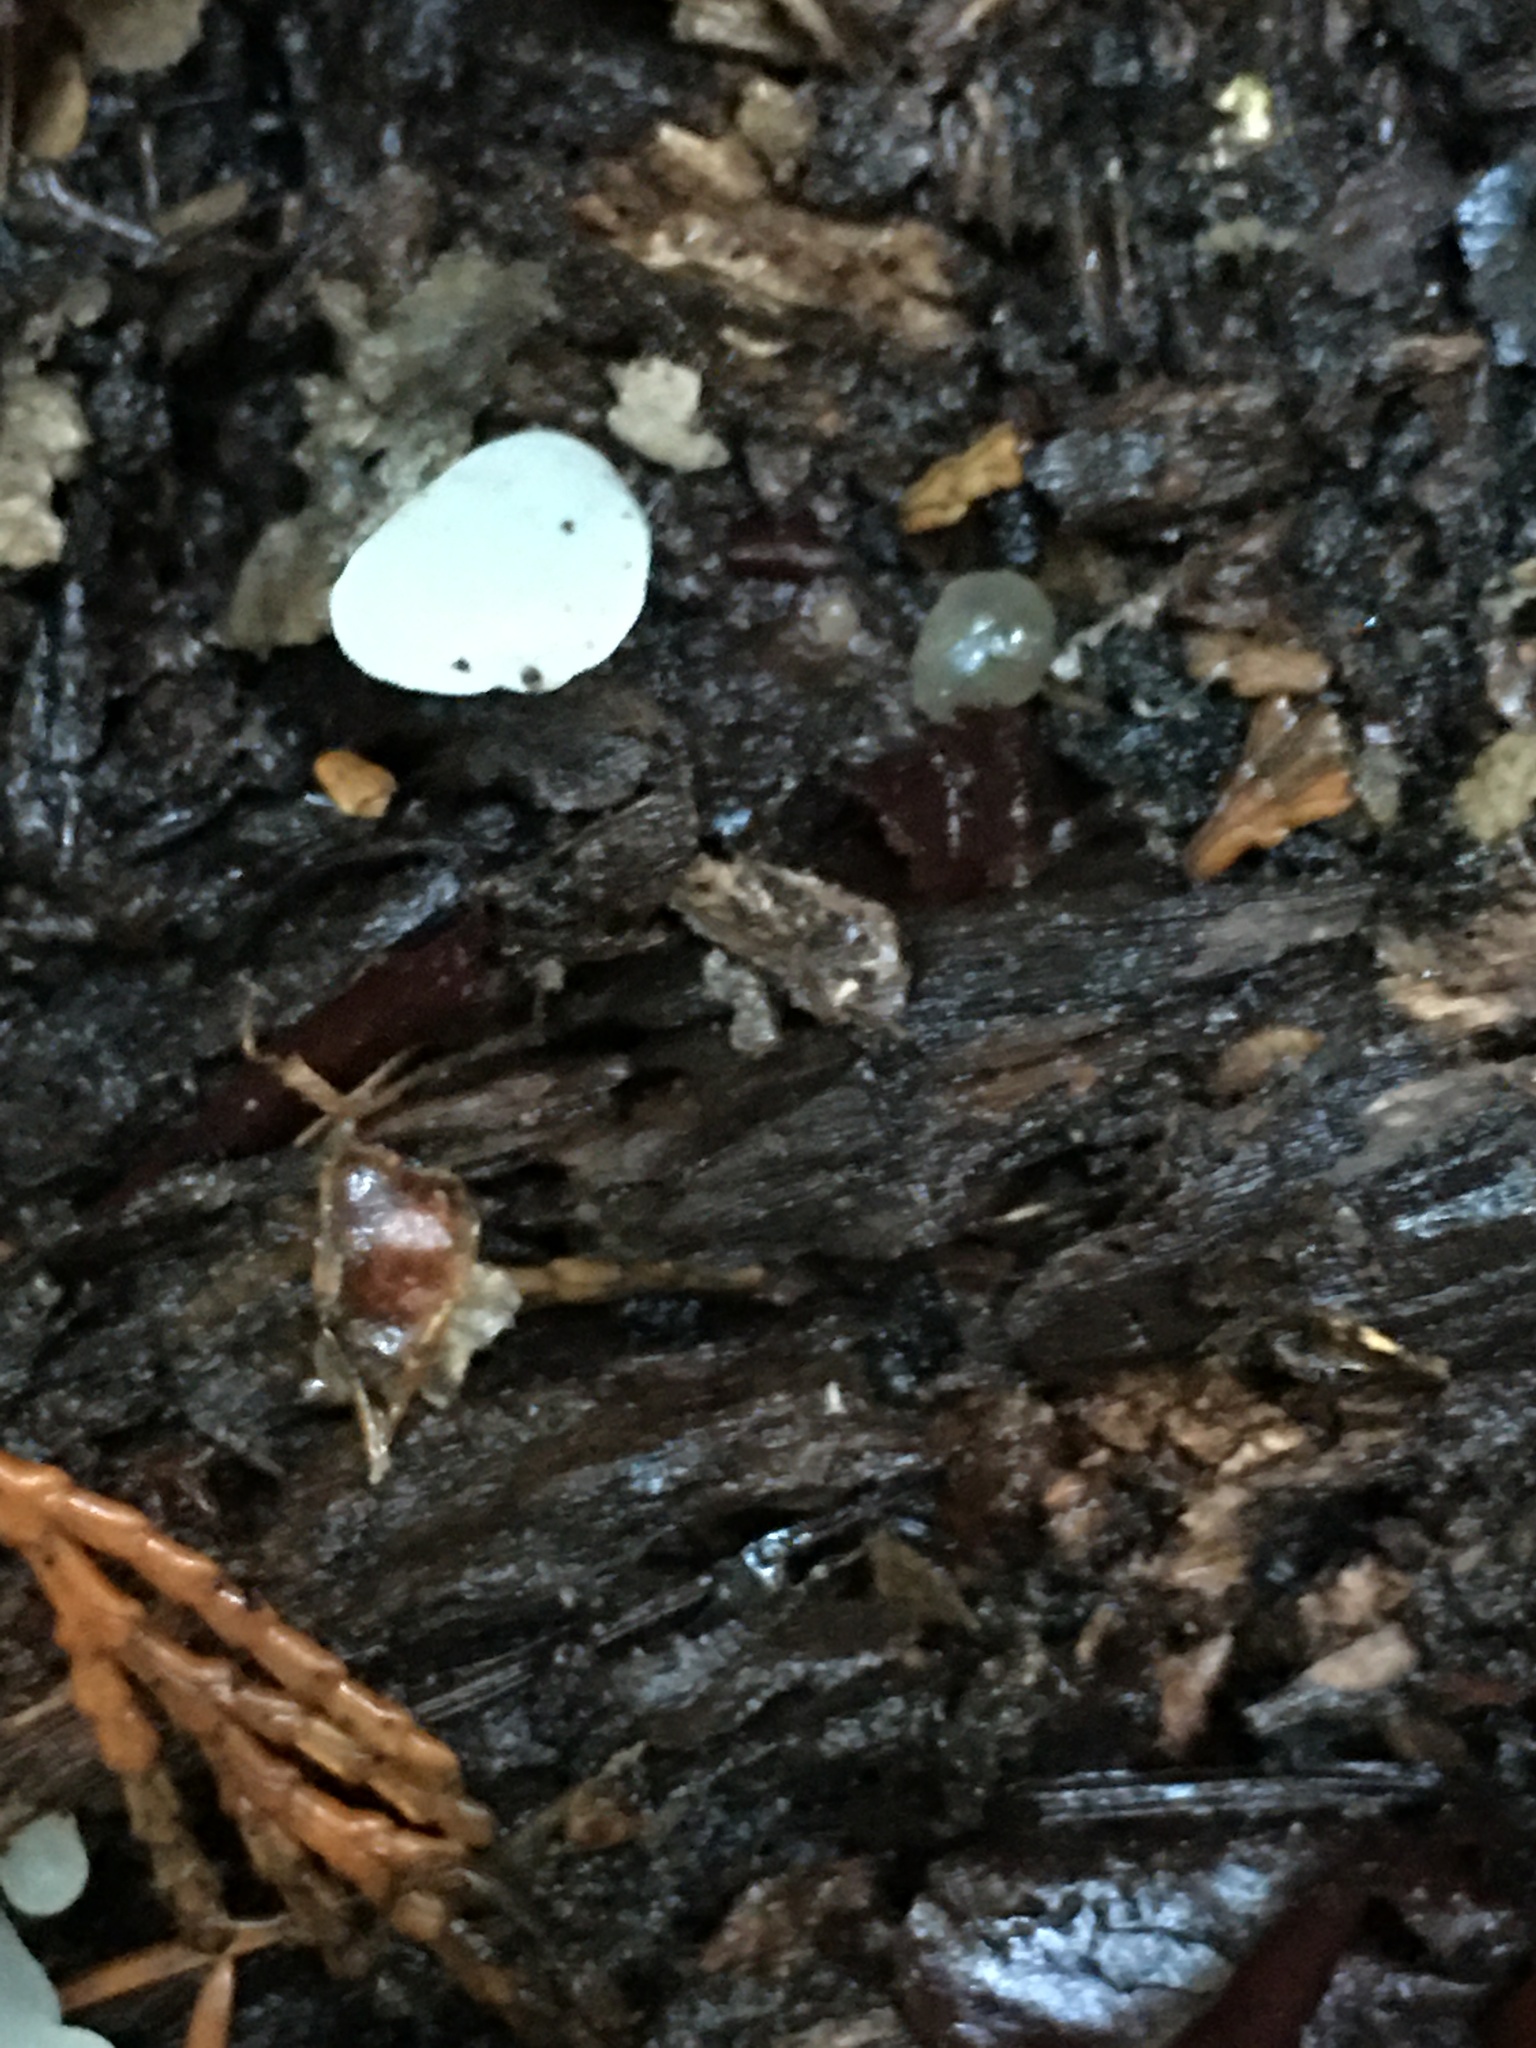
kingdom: Fungi
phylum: Basidiomycota
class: Agaricomycetes
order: Auriculariales
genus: Pseudohydnum
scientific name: Pseudohydnum gelatinosum
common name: Jelly tongue
